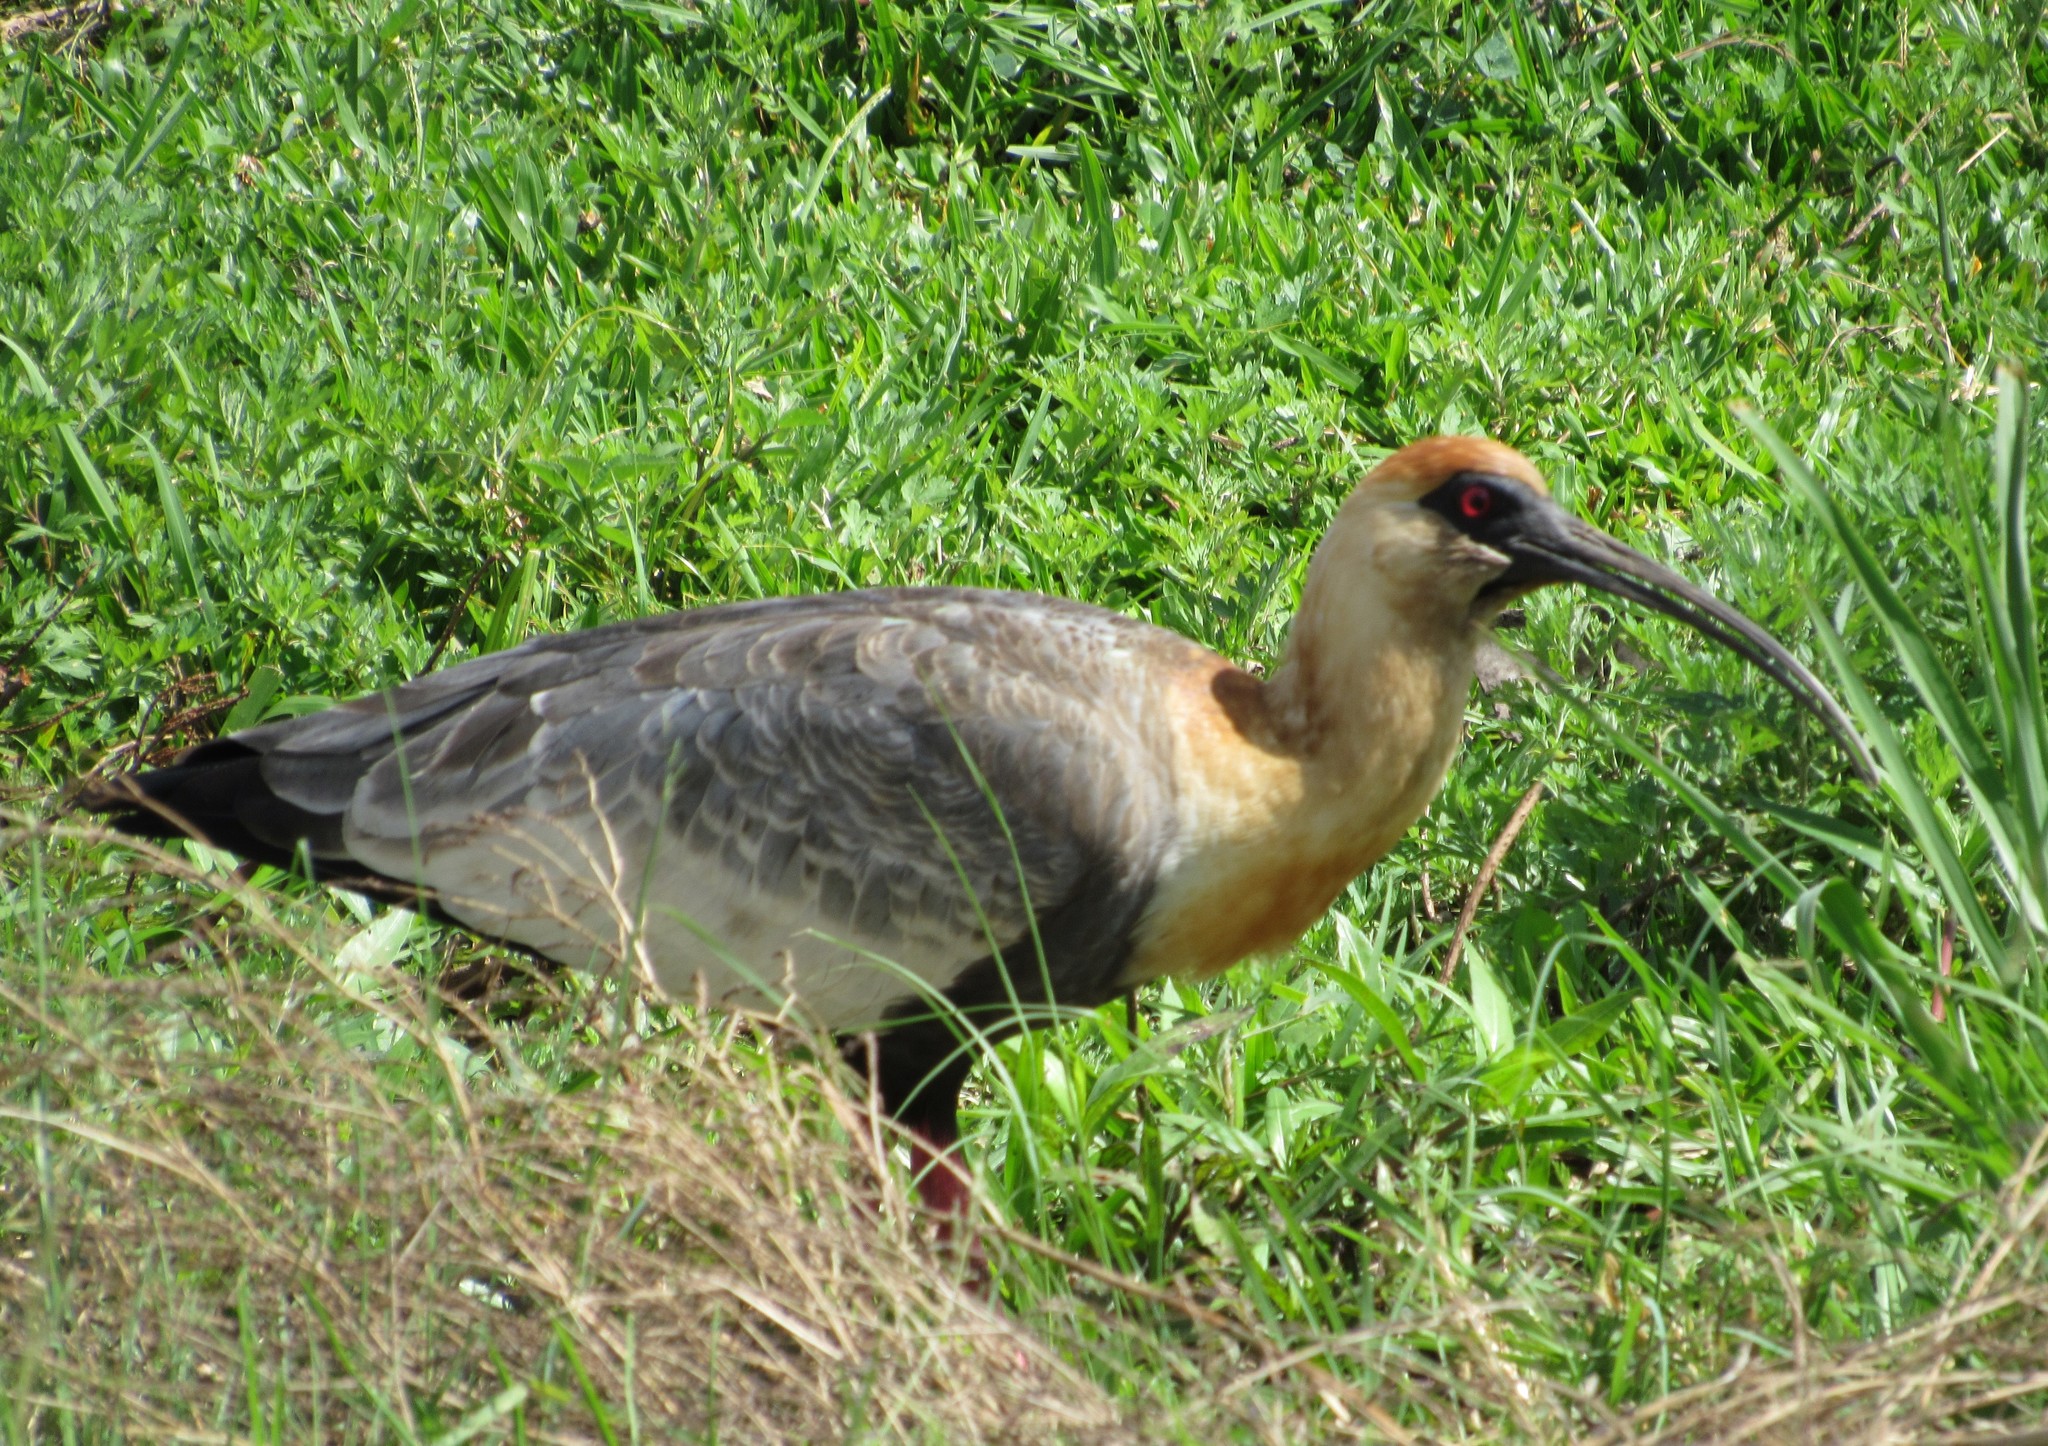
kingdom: Animalia
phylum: Chordata
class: Aves
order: Pelecaniformes
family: Threskiornithidae
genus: Theristicus
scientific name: Theristicus caudatus
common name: Buff-necked ibis
